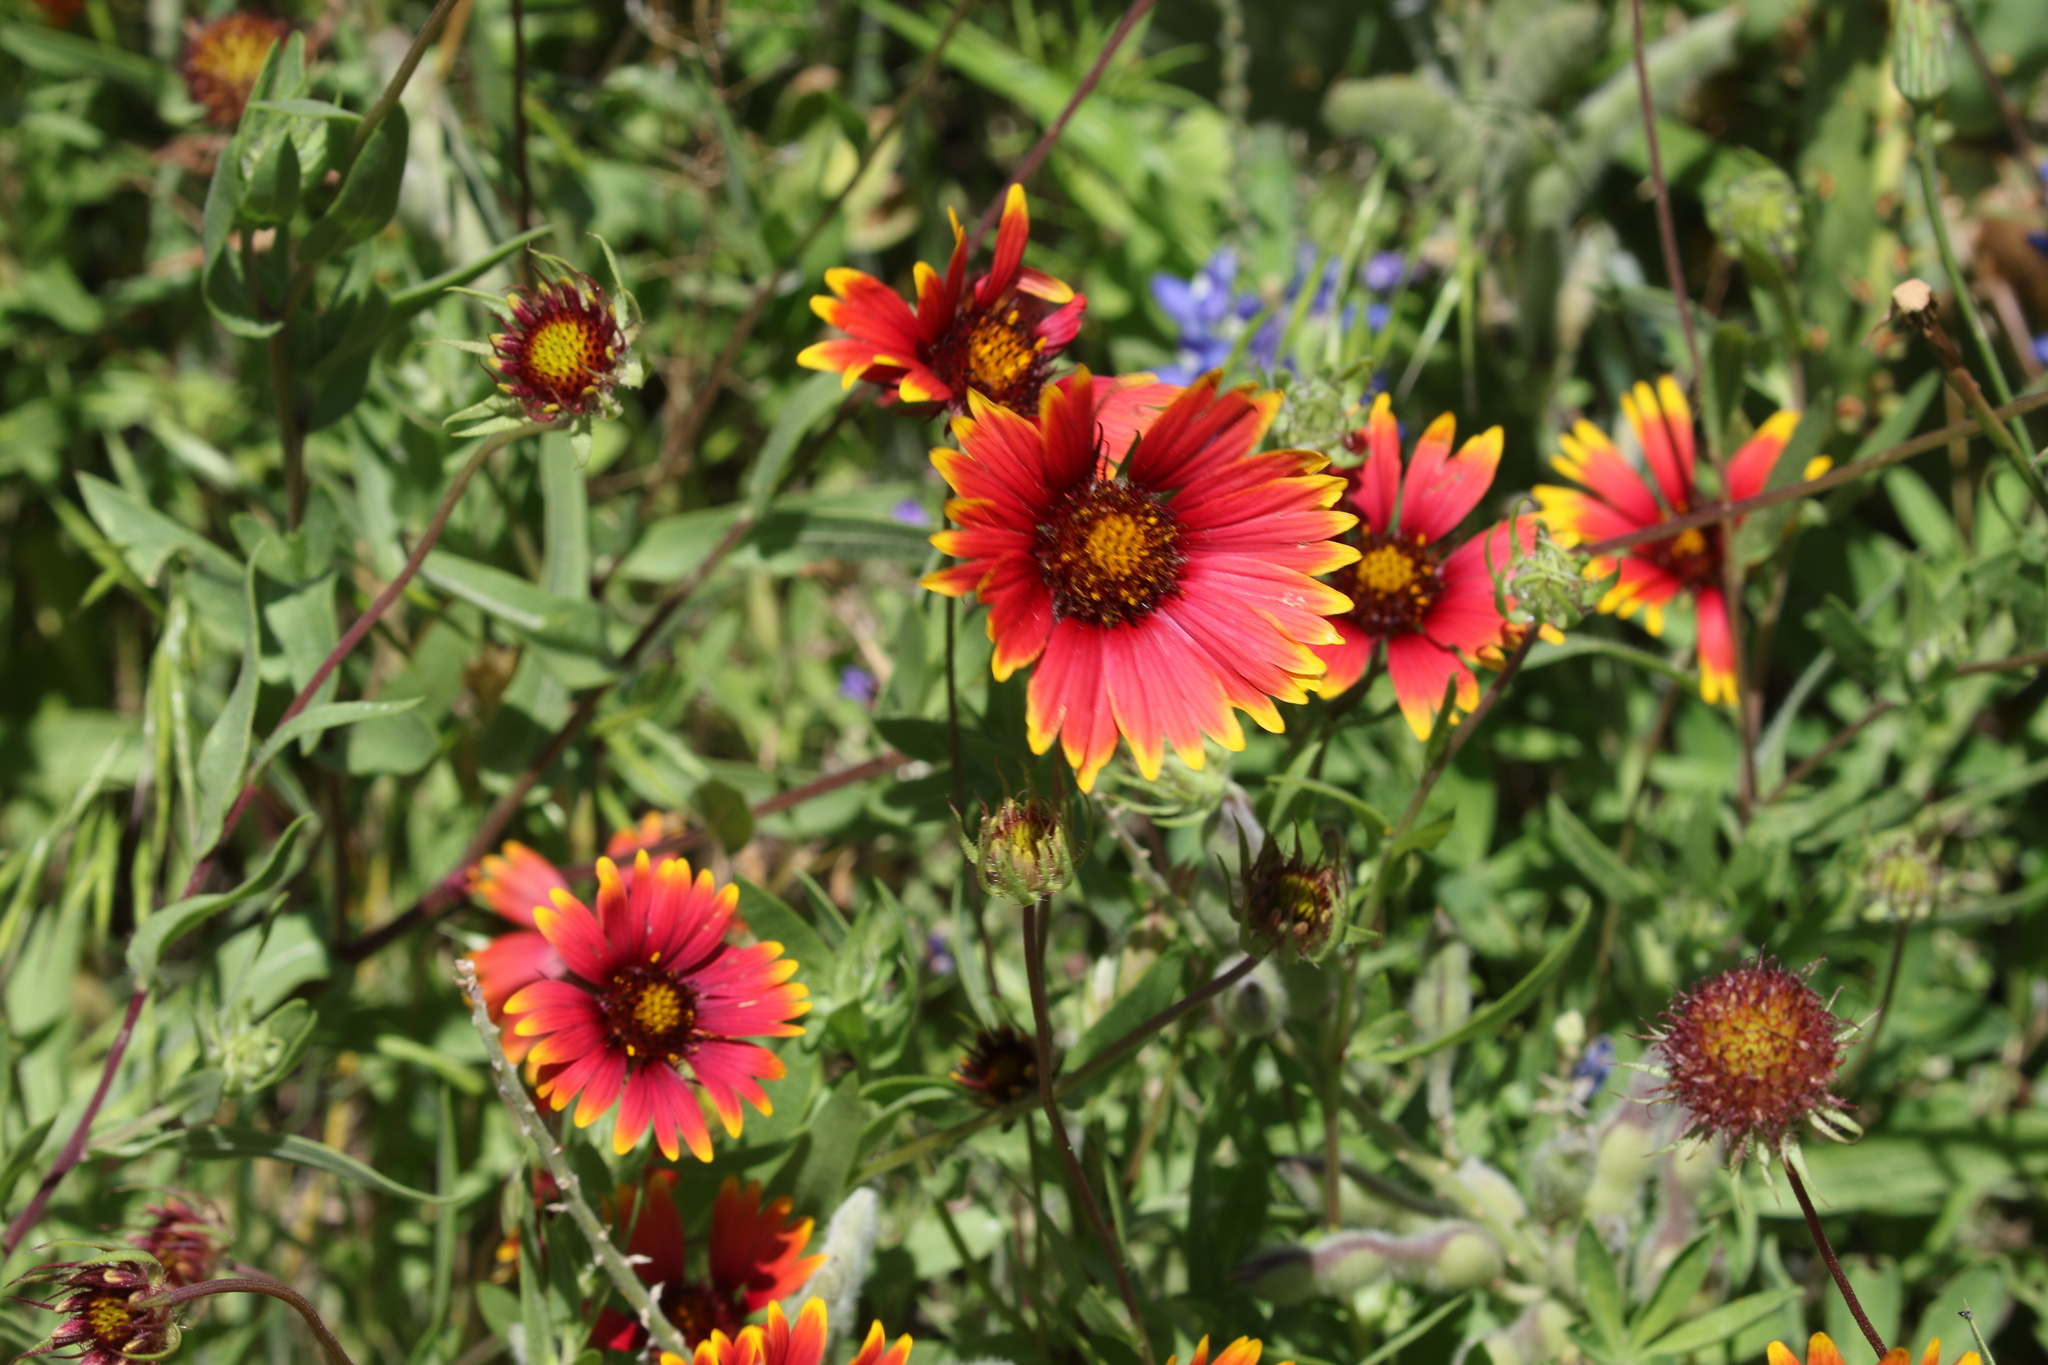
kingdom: Plantae
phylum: Tracheophyta
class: Magnoliopsida
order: Asterales
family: Asteraceae
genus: Gaillardia
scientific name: Gaillardia pulchella
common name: Firewheel
